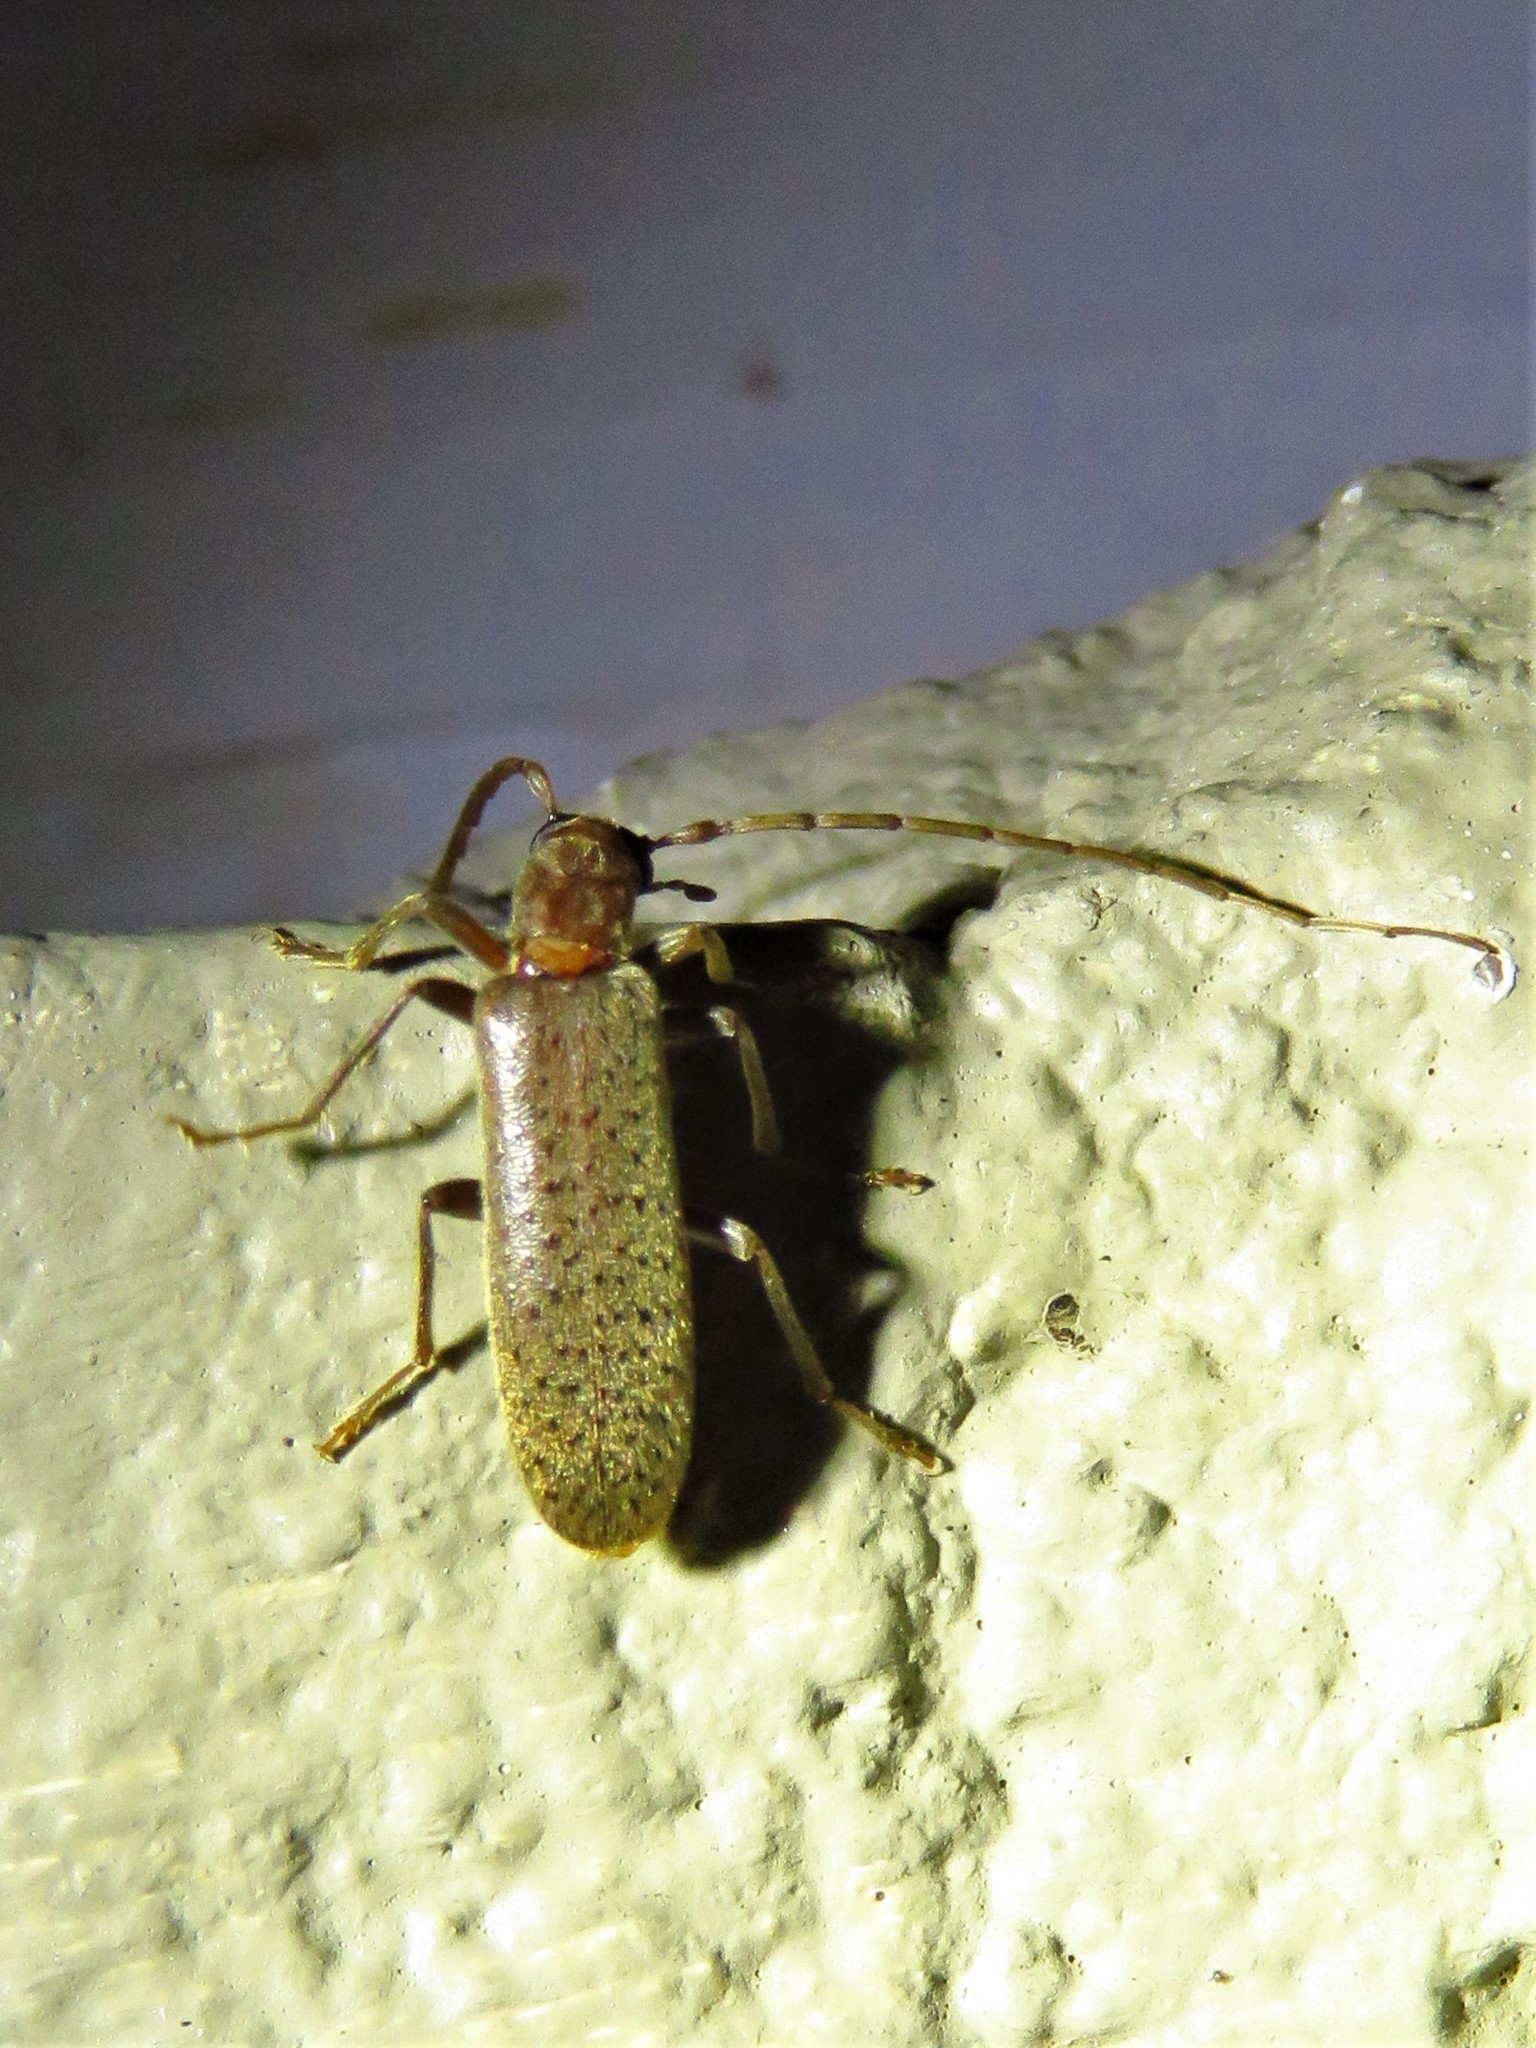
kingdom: Animalia
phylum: Arthropoda
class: Insecta
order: Coleoptera
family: Oedemeridae
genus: Sparedrus
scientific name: Sparedrus aspersus
